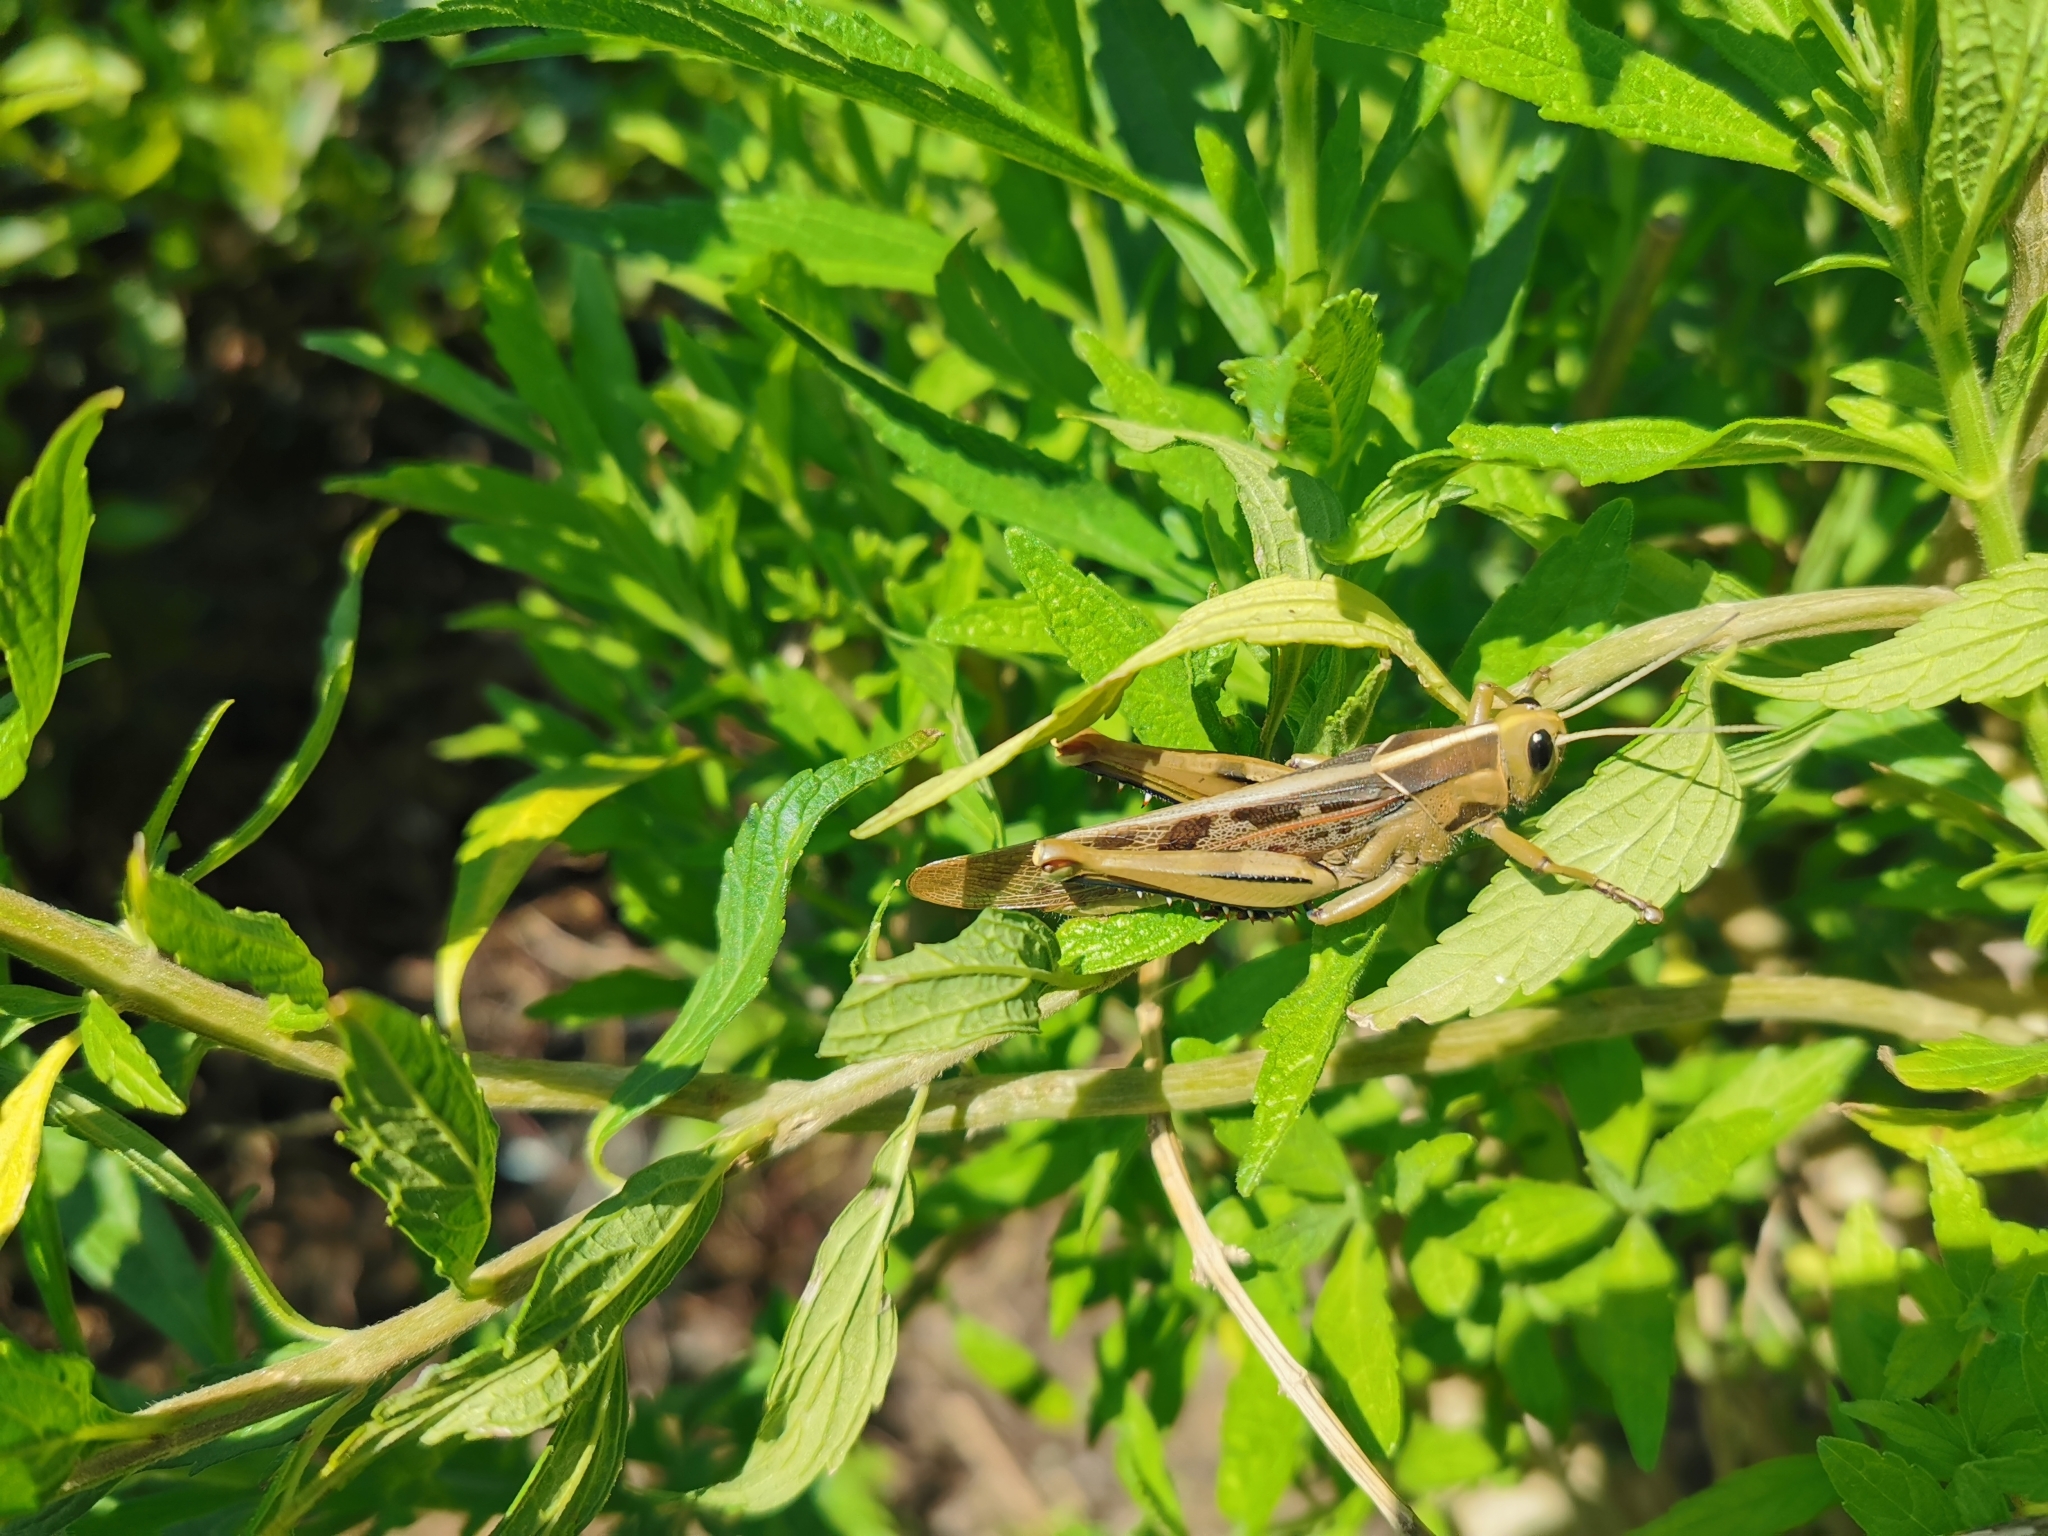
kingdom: Animalia
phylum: Arthropoda
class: Insecta
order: Orthoptera
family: Acrididae
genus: Acanthacris
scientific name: Acanthacris ruficornis
